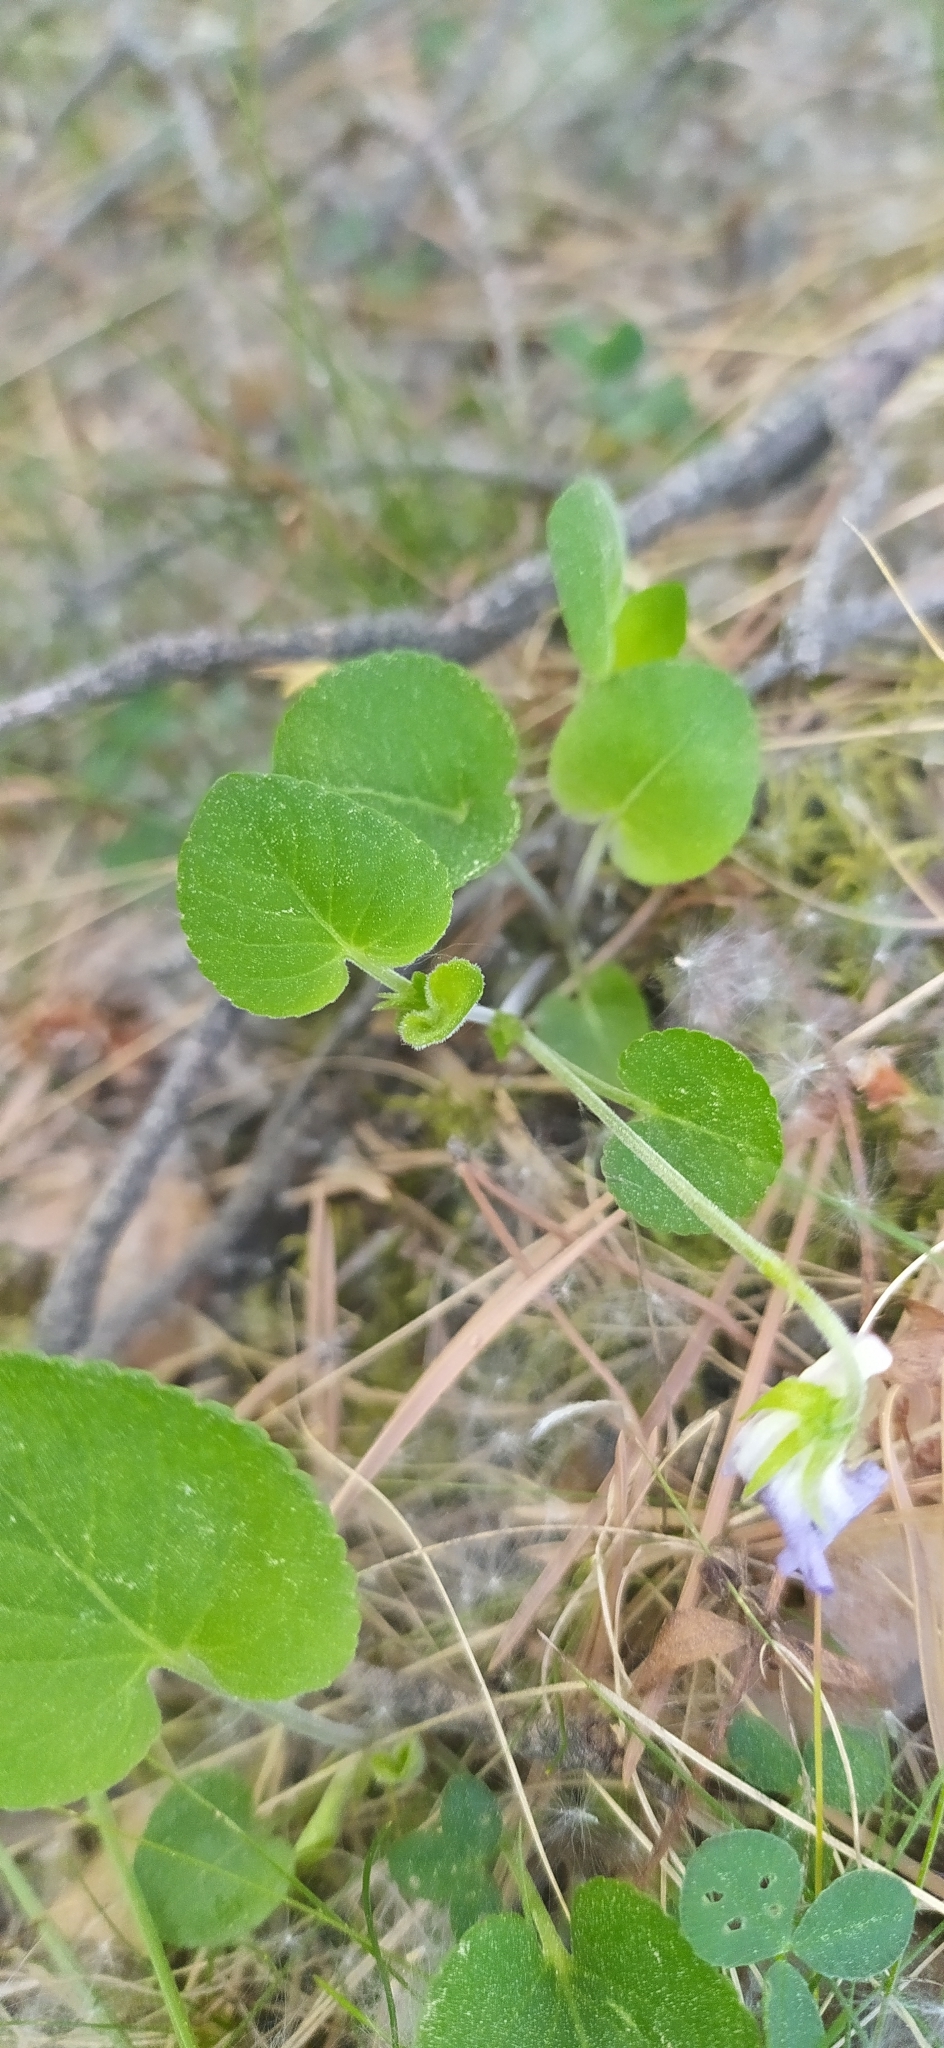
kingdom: Plantae
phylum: Tracheophyta
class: Magnoliopsida
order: Malpighiales
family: Violaceae
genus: Viola
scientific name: Viola rupestris
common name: Teesdale violet
